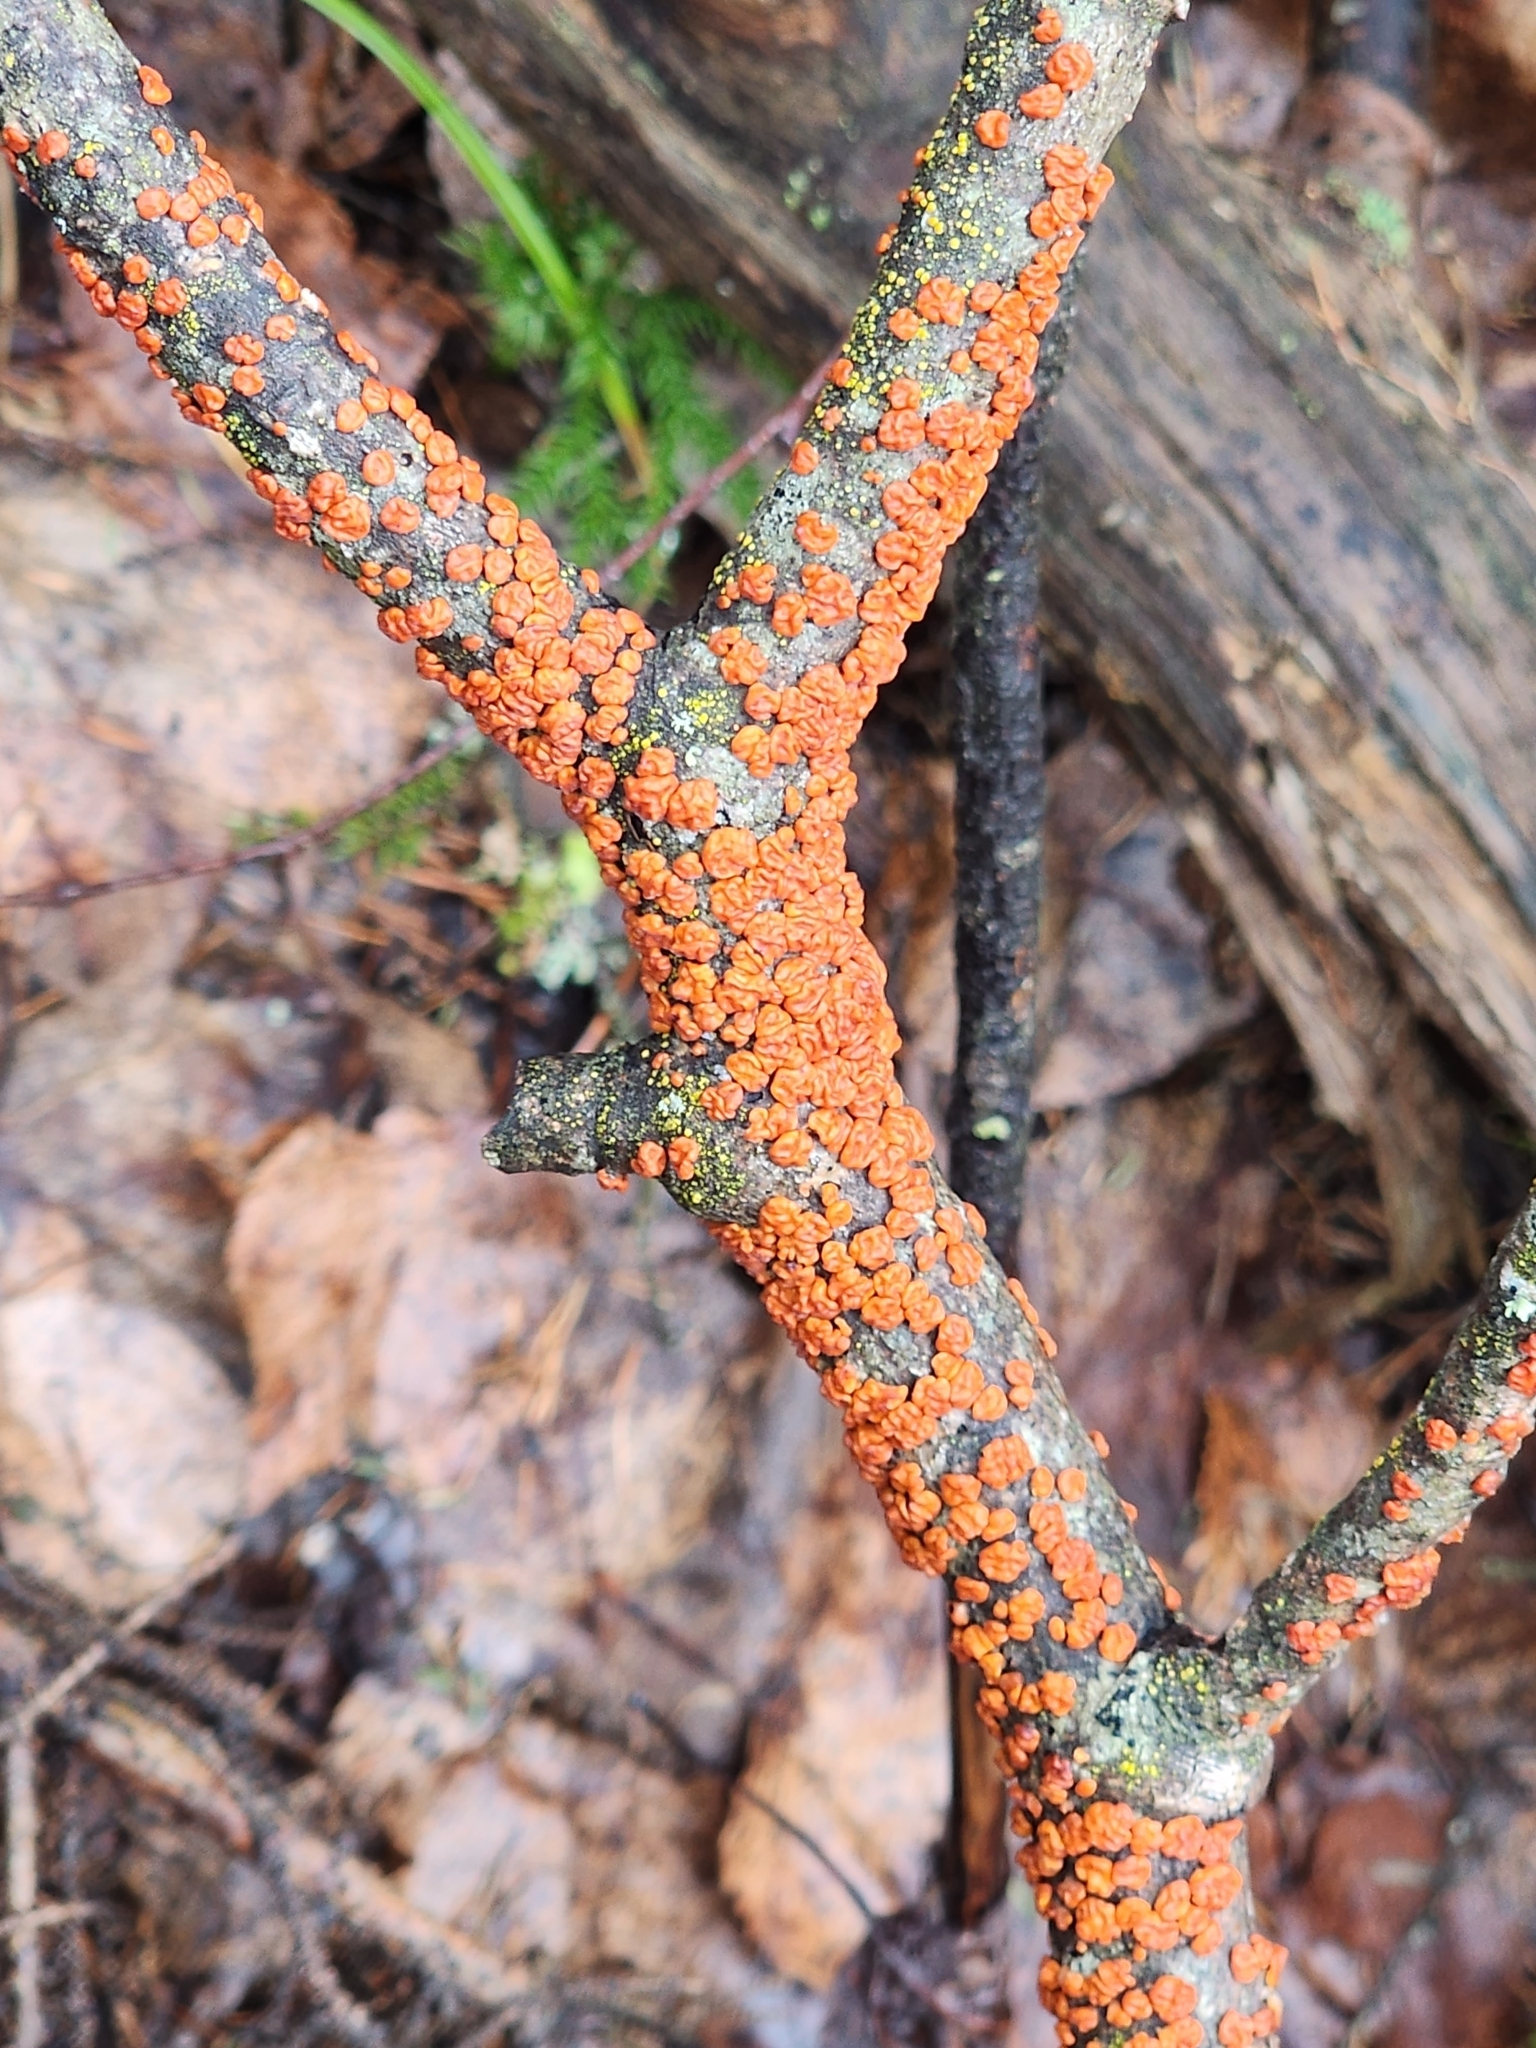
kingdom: Fungi
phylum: Basidiomycota
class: Agaricomycetes
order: Russulales
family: Peniophoraceae
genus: Peniophora
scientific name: Peniophora rufa
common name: Red tree brain fungus
